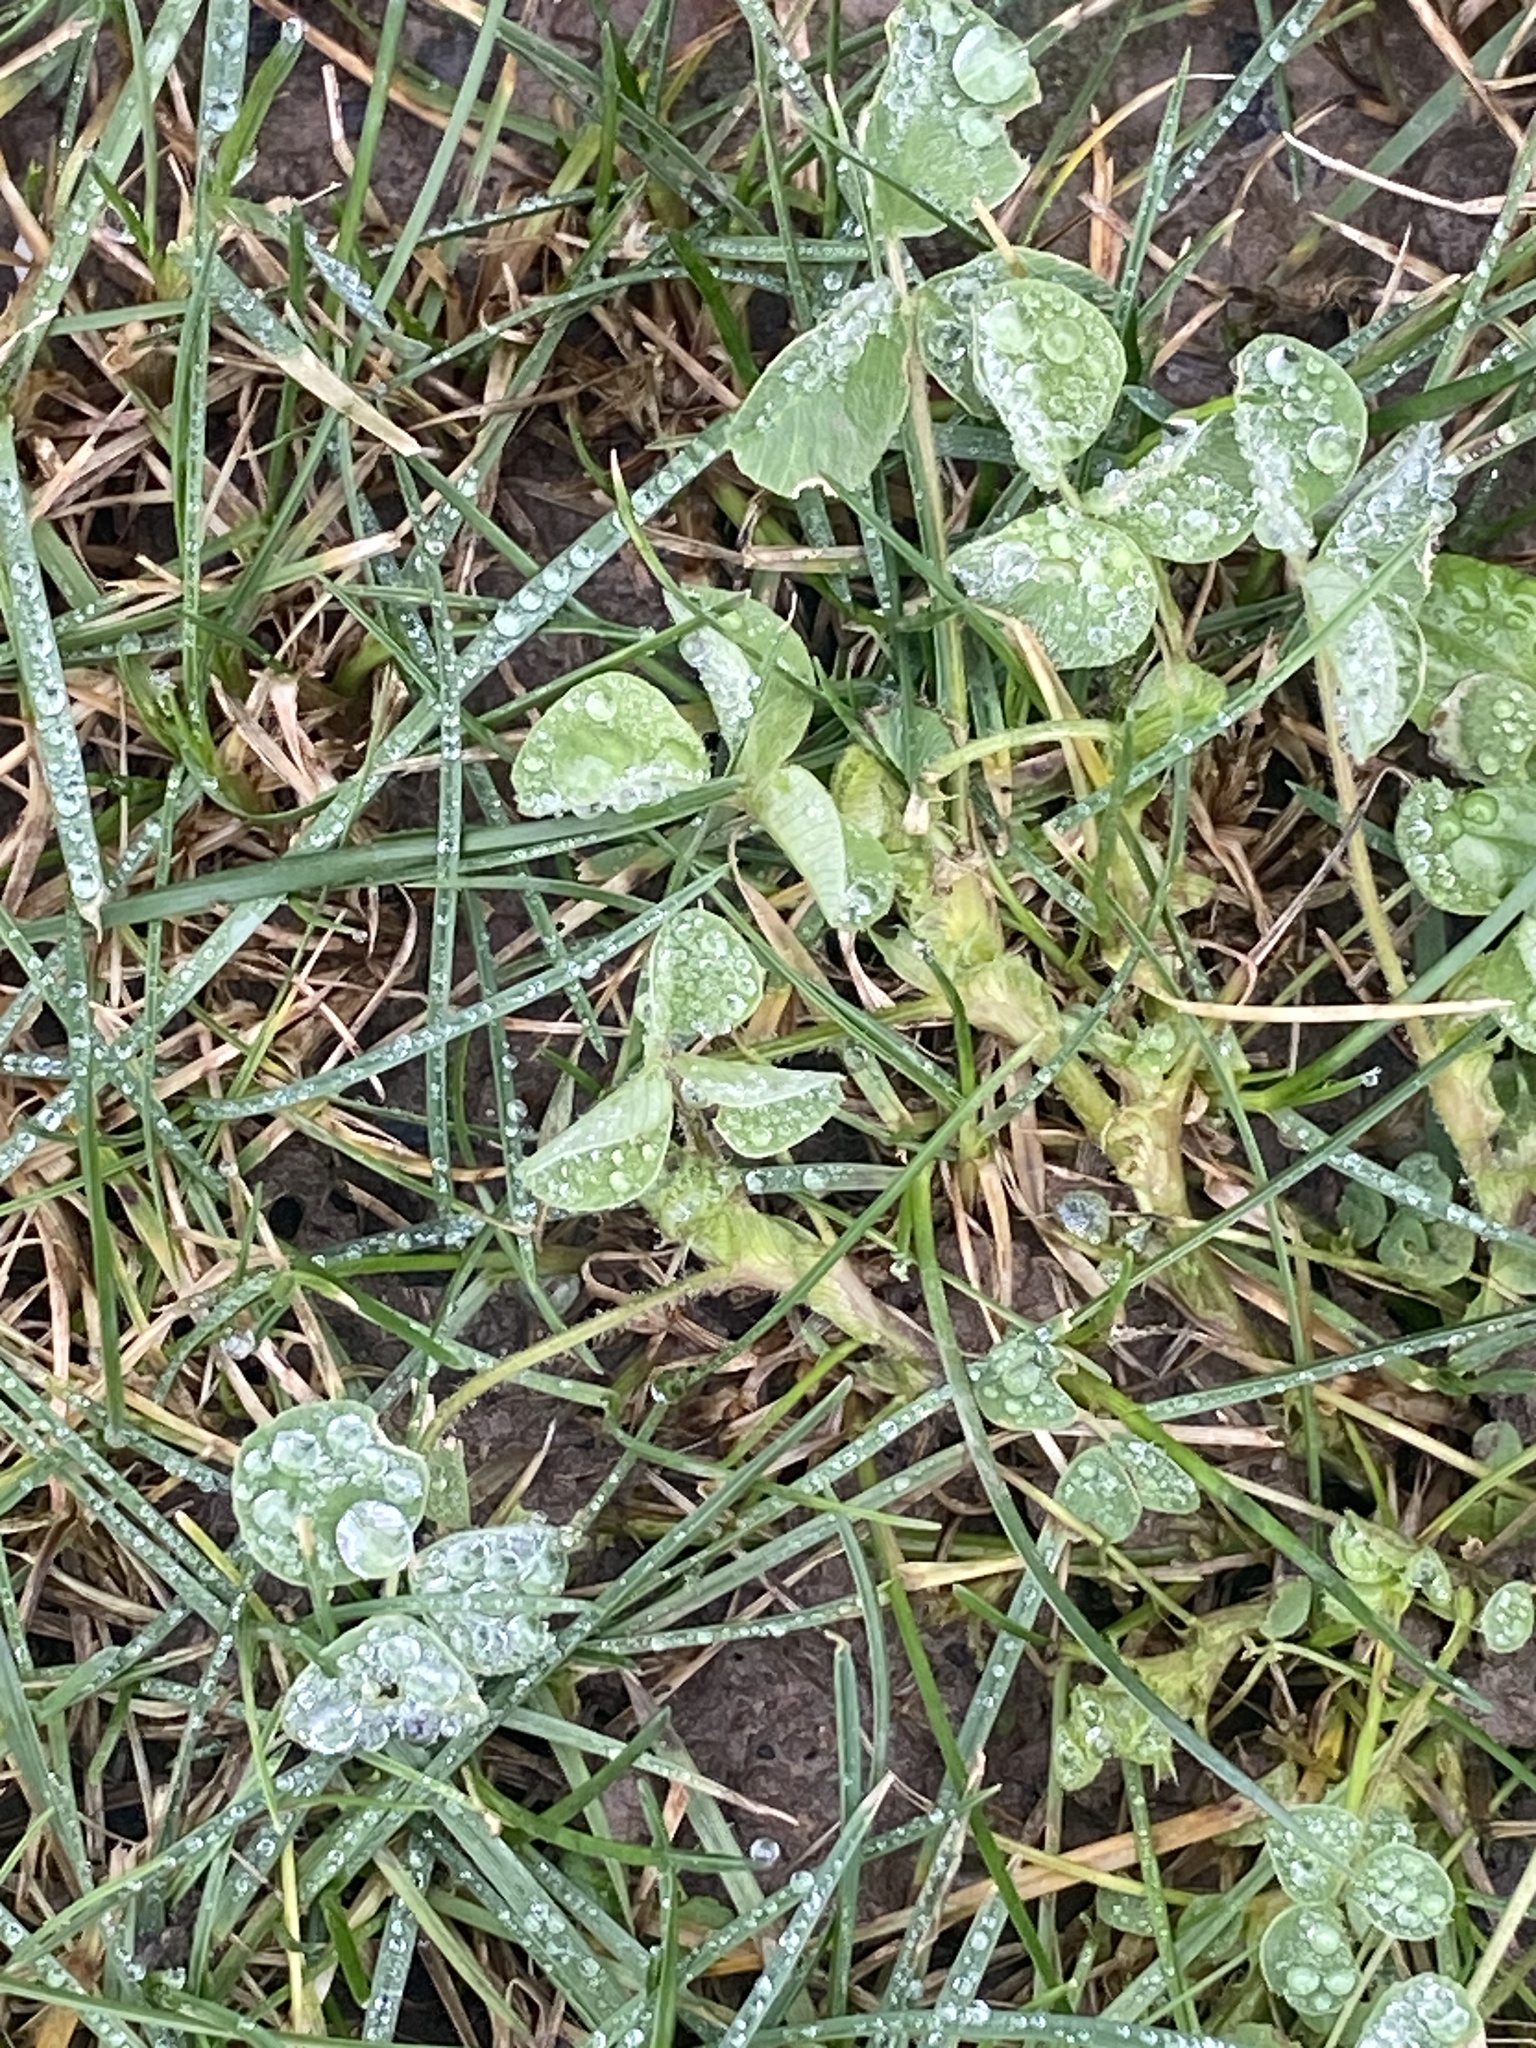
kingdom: Plantae
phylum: Tracheophyta
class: Magnoliopsida
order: Fabales
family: Fabaceae
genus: Medicago
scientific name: Medicago lupulina
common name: Black medick
